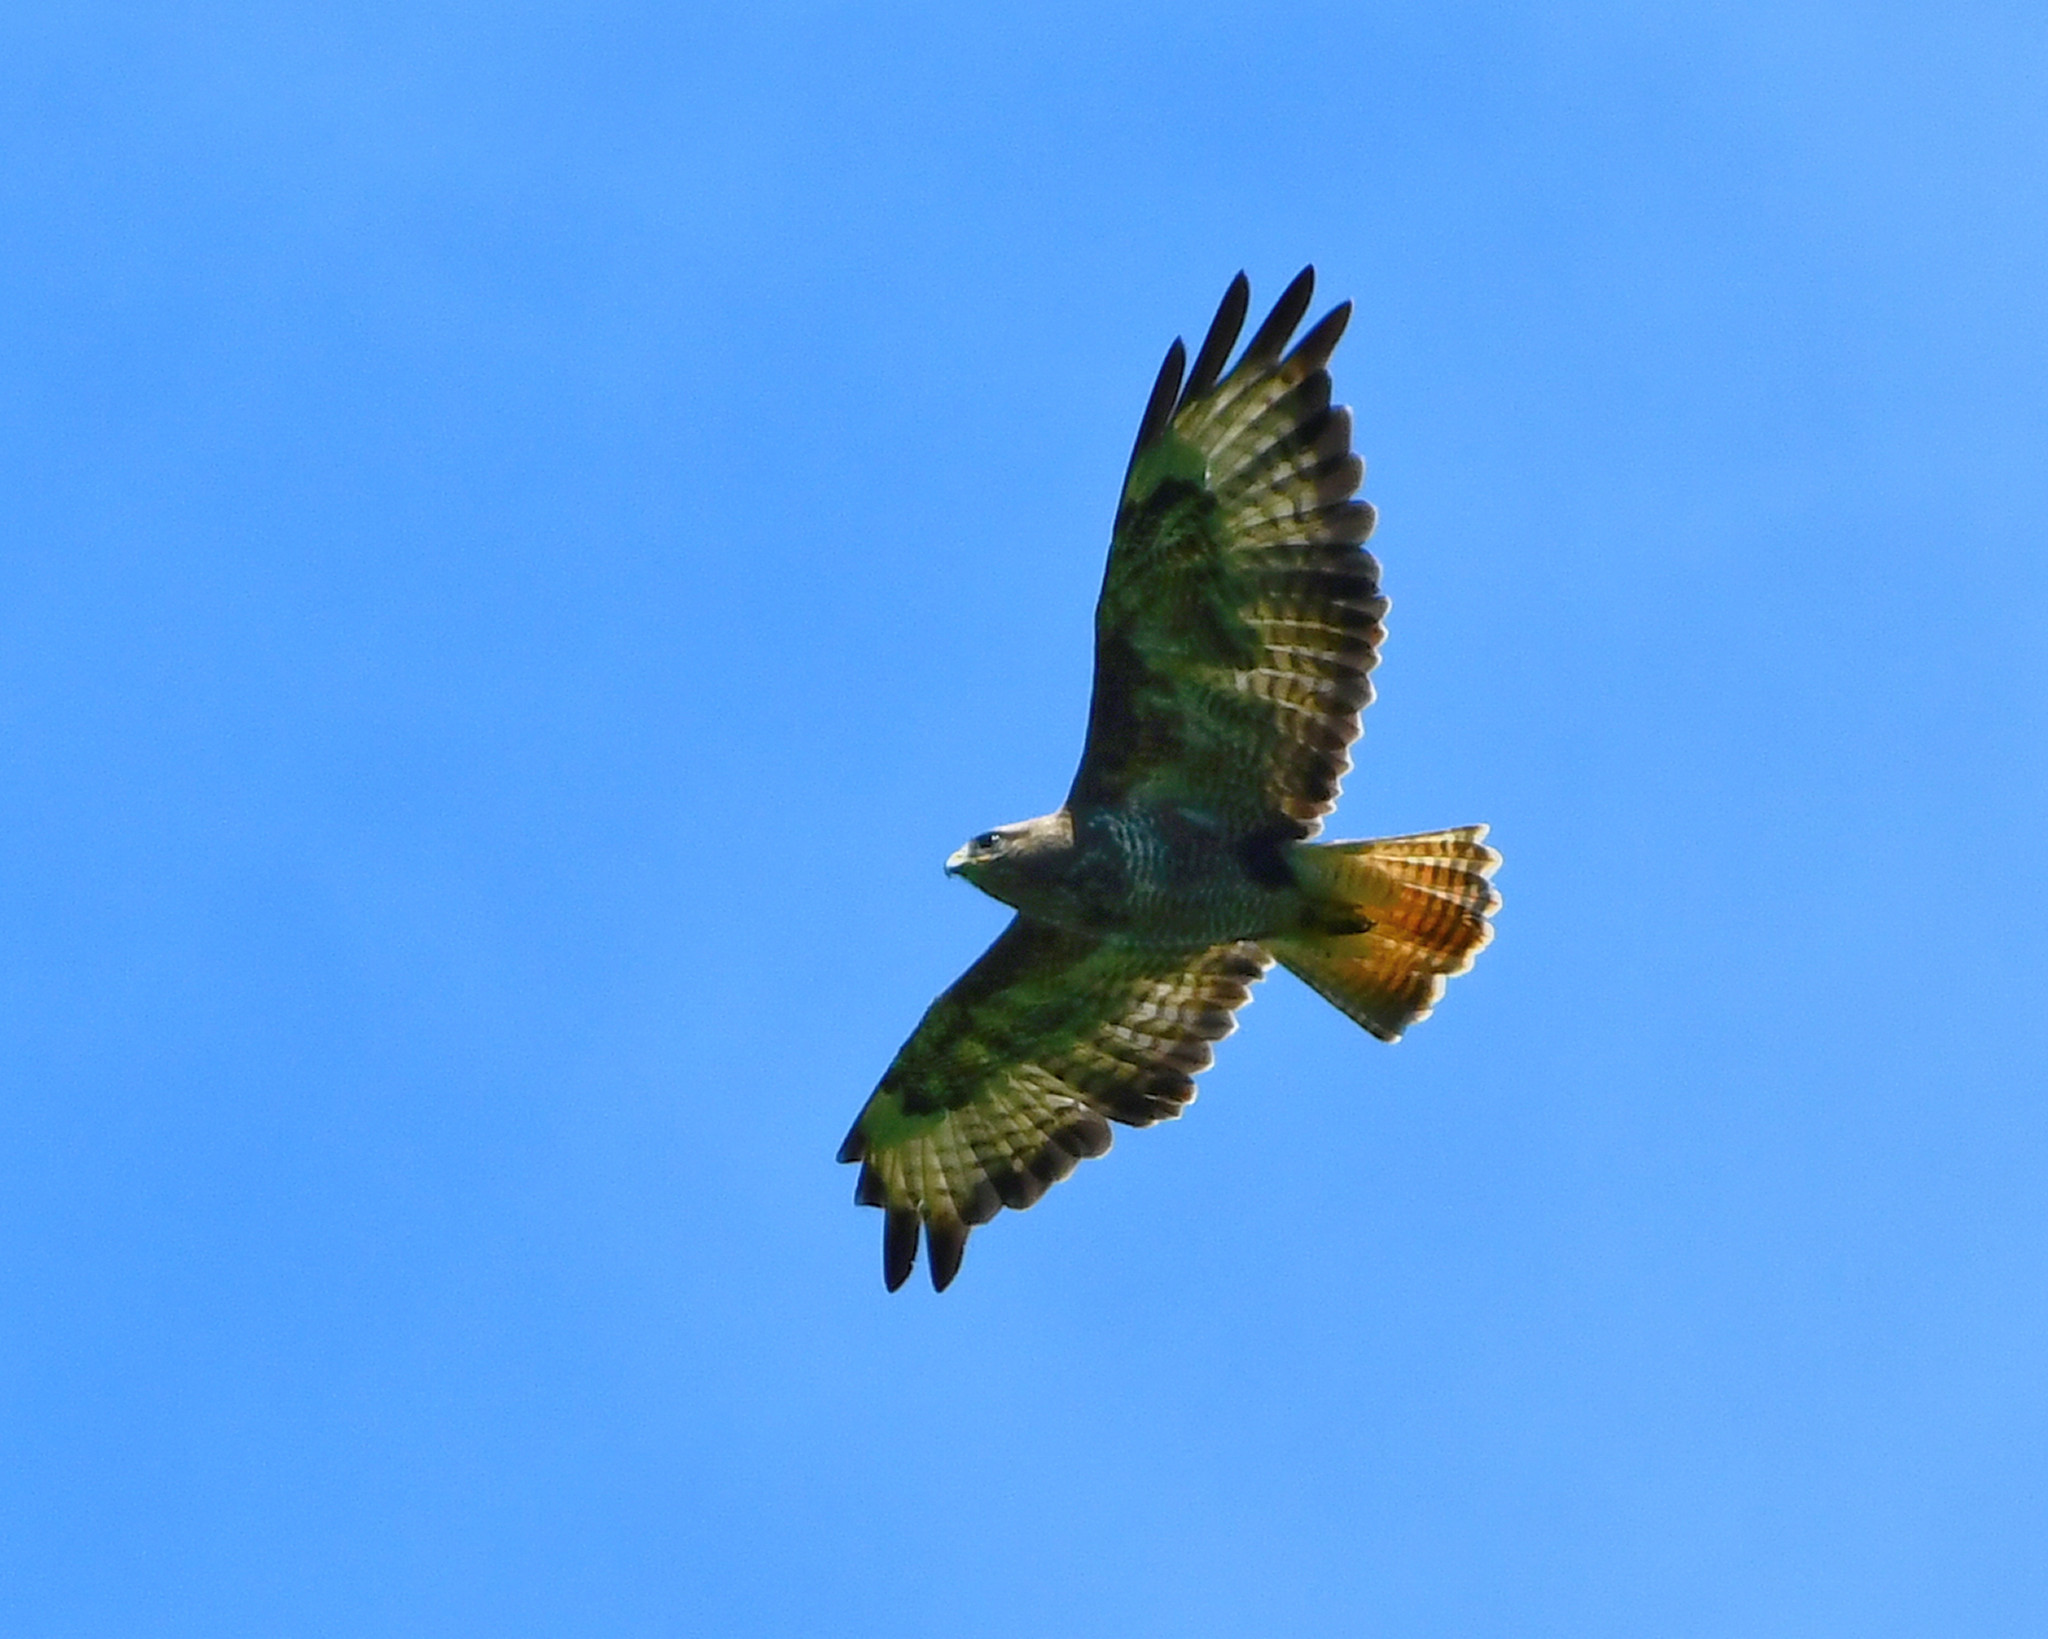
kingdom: Animalia
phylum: Chordata
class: Aves
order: Accipitriformes
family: Accipitridae
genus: Buteo
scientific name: Buteo buteo
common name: Common buzzard
